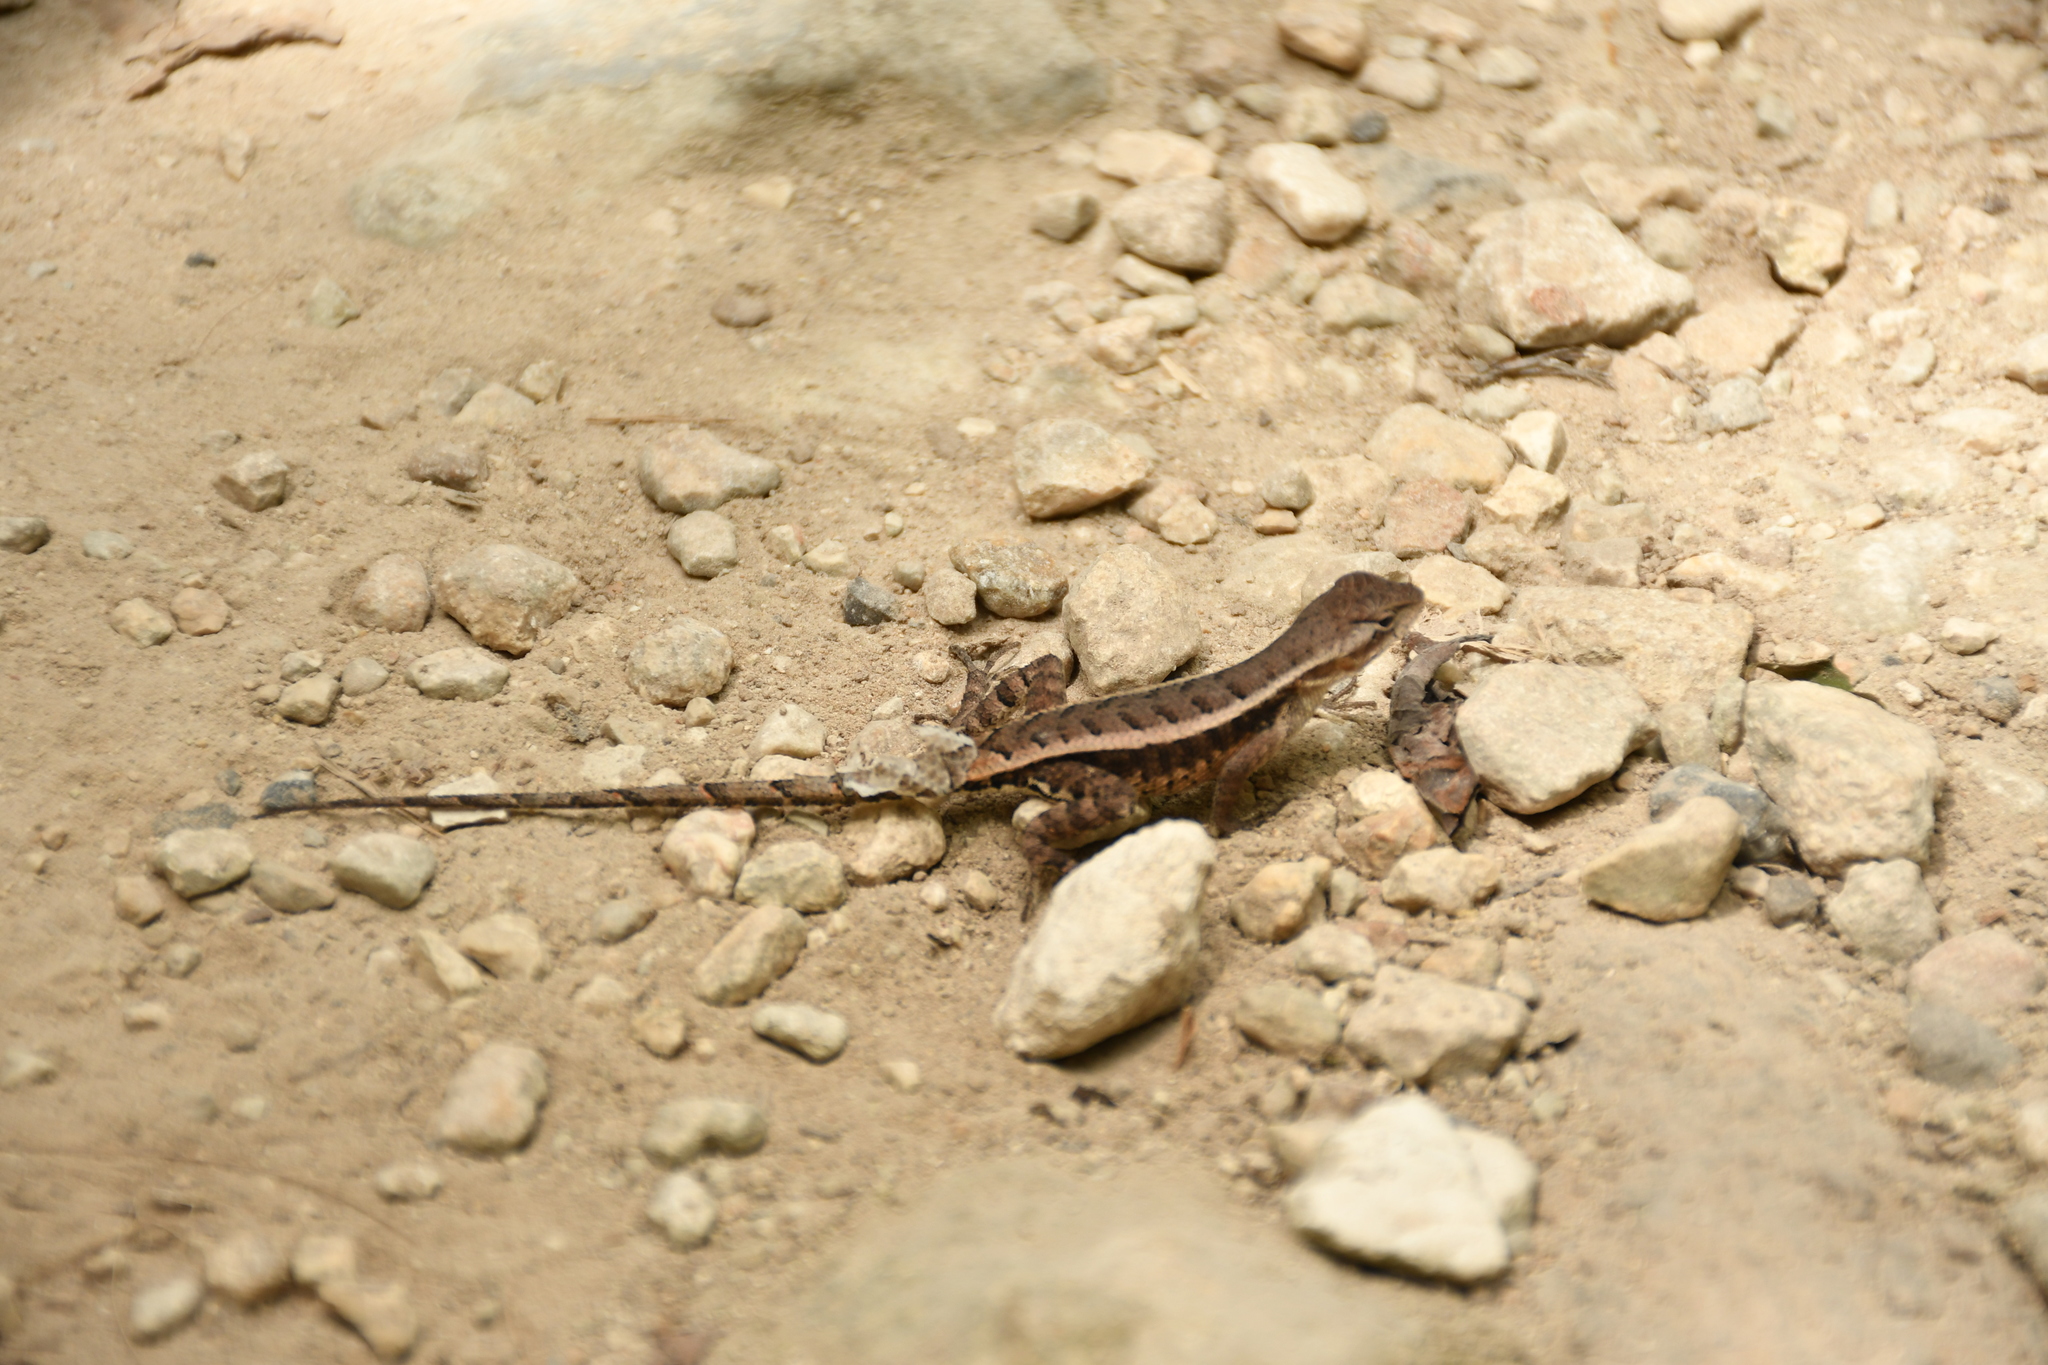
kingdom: Animalia
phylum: Chordata
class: Squamata
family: Phrynosomatidae
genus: Sceloporus
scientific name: Sceloporus chrysostictus
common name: Yellow-spotted spiny lizard
